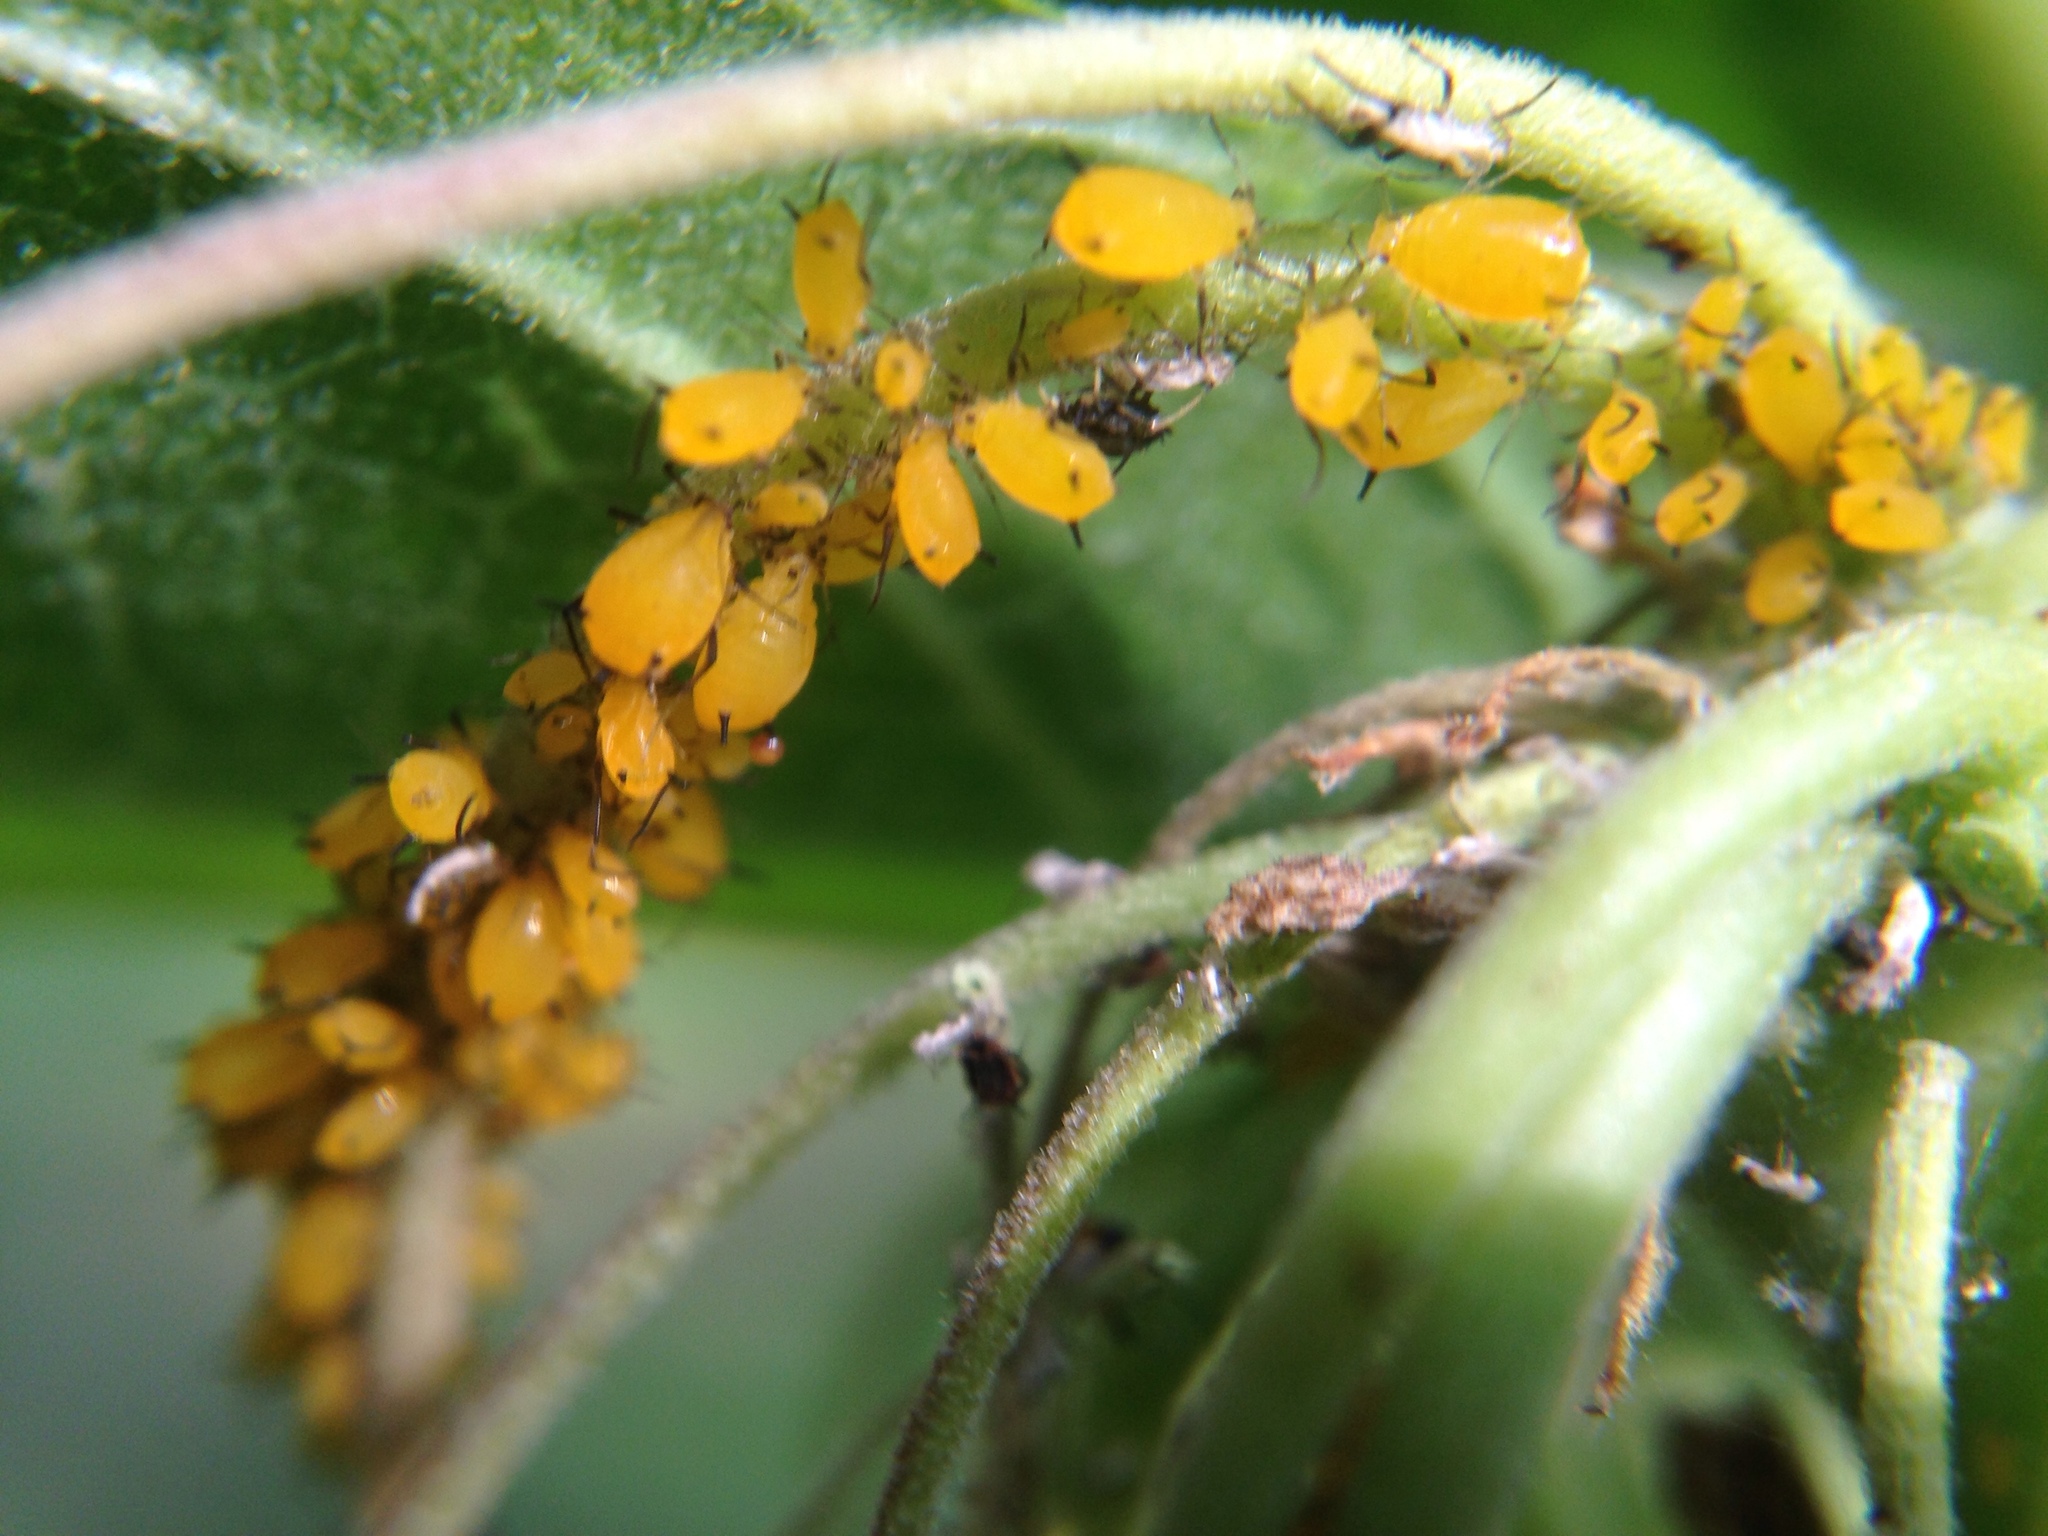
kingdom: Animalia
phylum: Arthropoda
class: Insecta
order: Hemiptera
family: Aphididae
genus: Aphis
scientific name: Aphis nerii
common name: Oleander aphid
